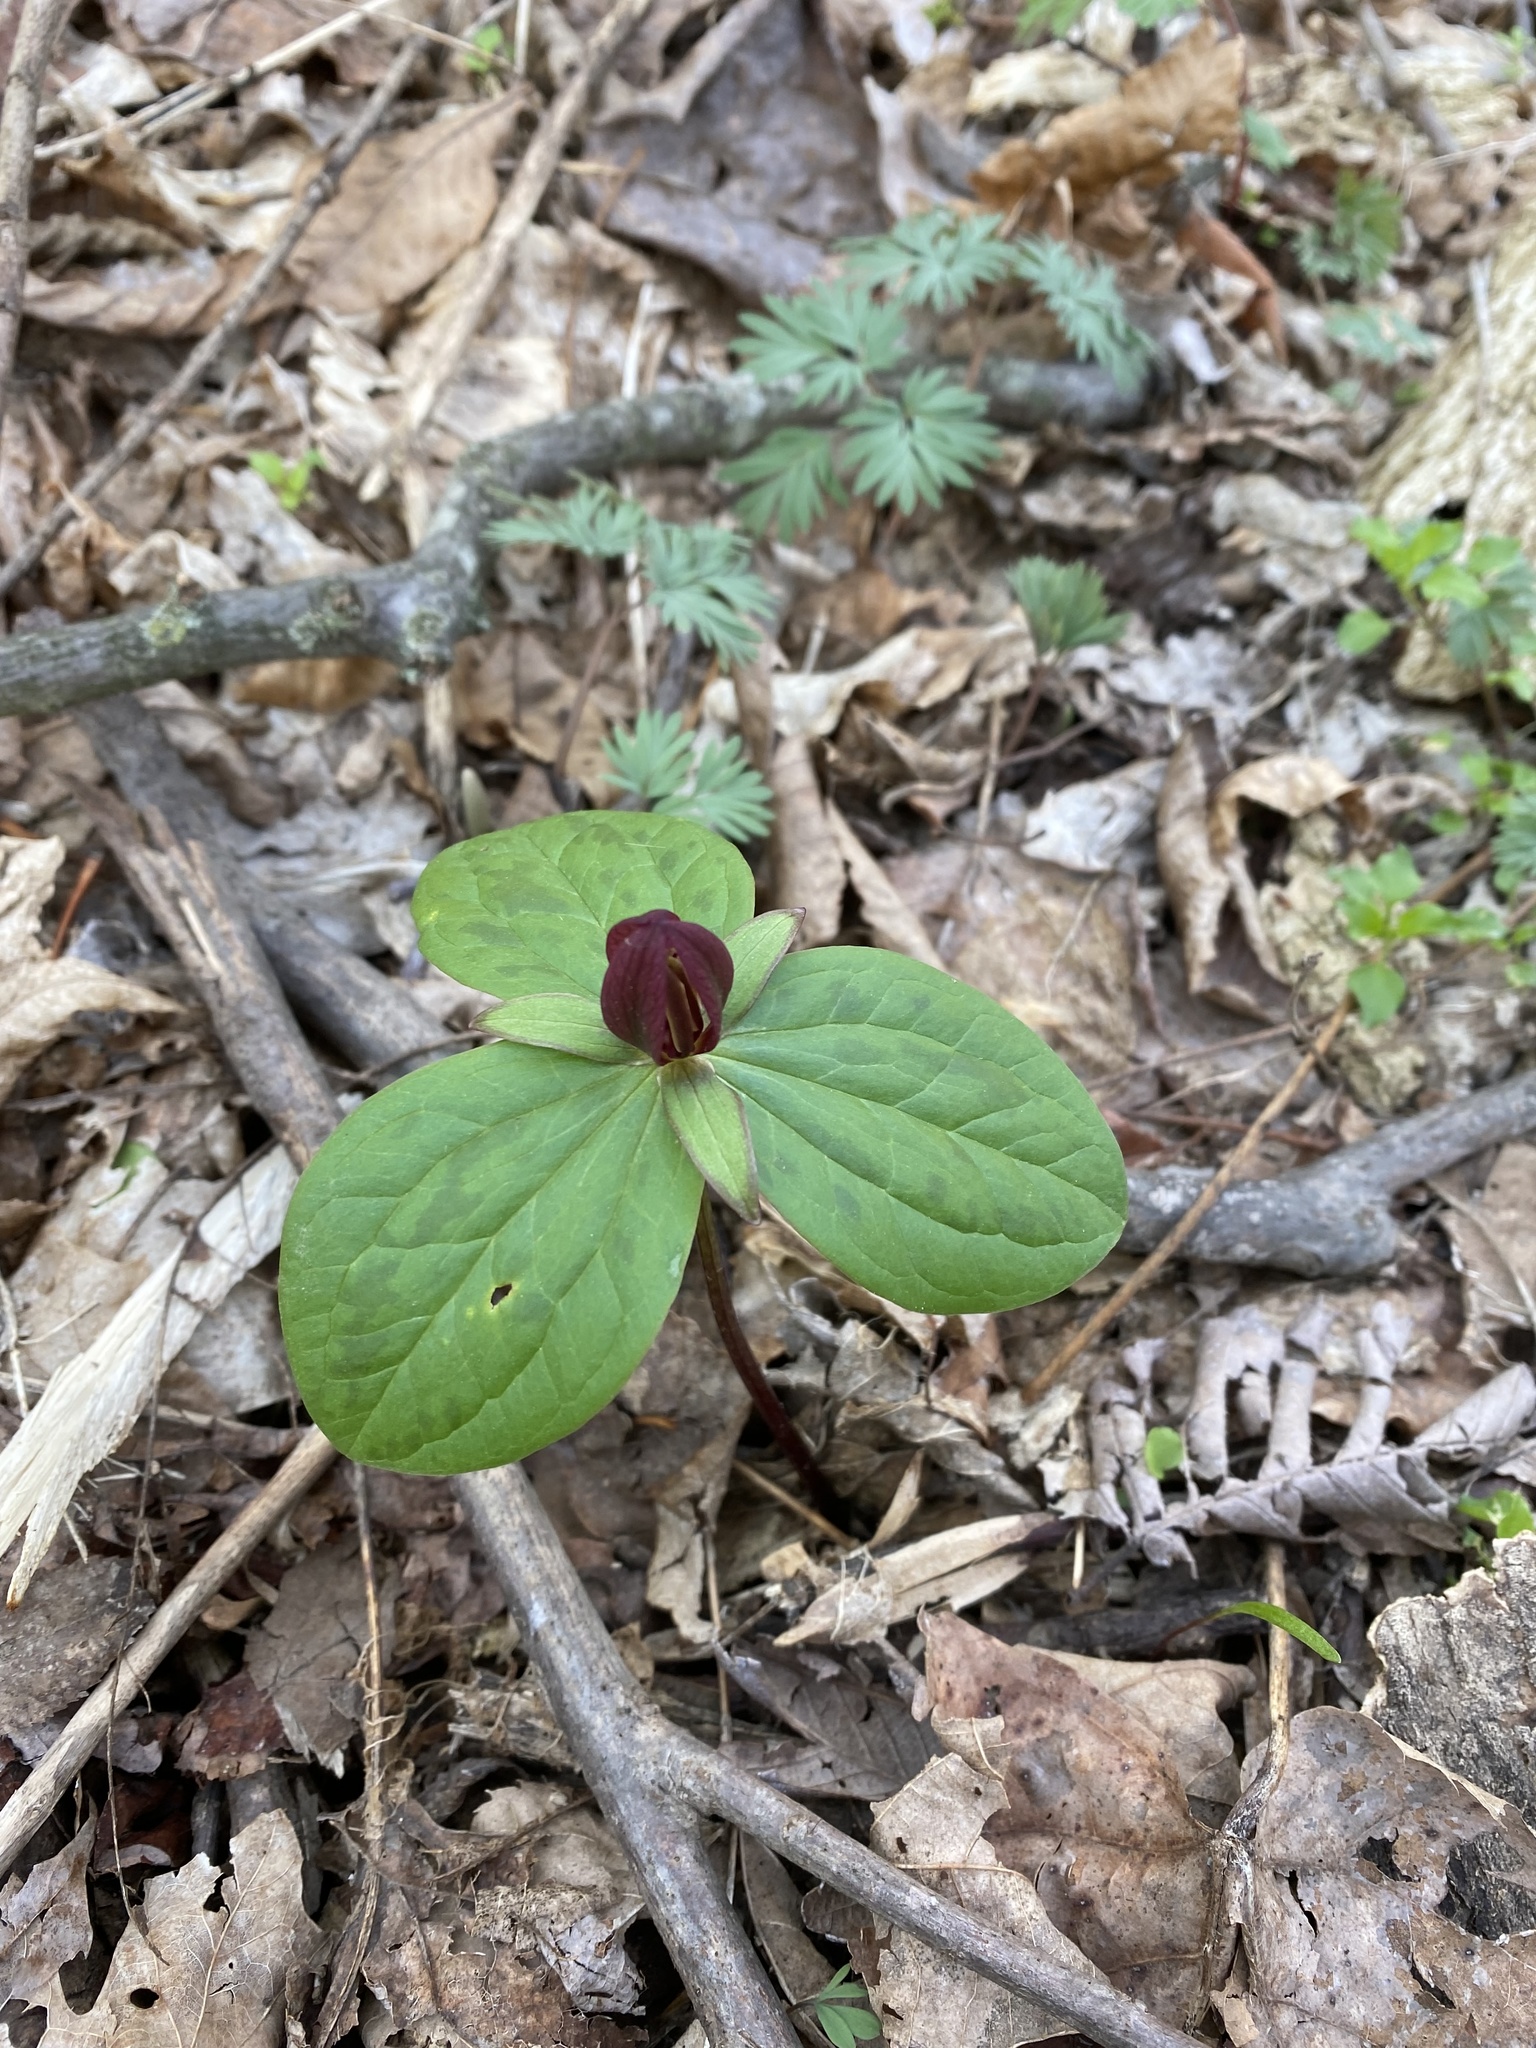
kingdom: Plantae
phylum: Tracheophyta
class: Liliopsida
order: Liliales
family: Melanthiaceae
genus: Trillium
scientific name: Trillium sessile
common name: Sessile trillium
